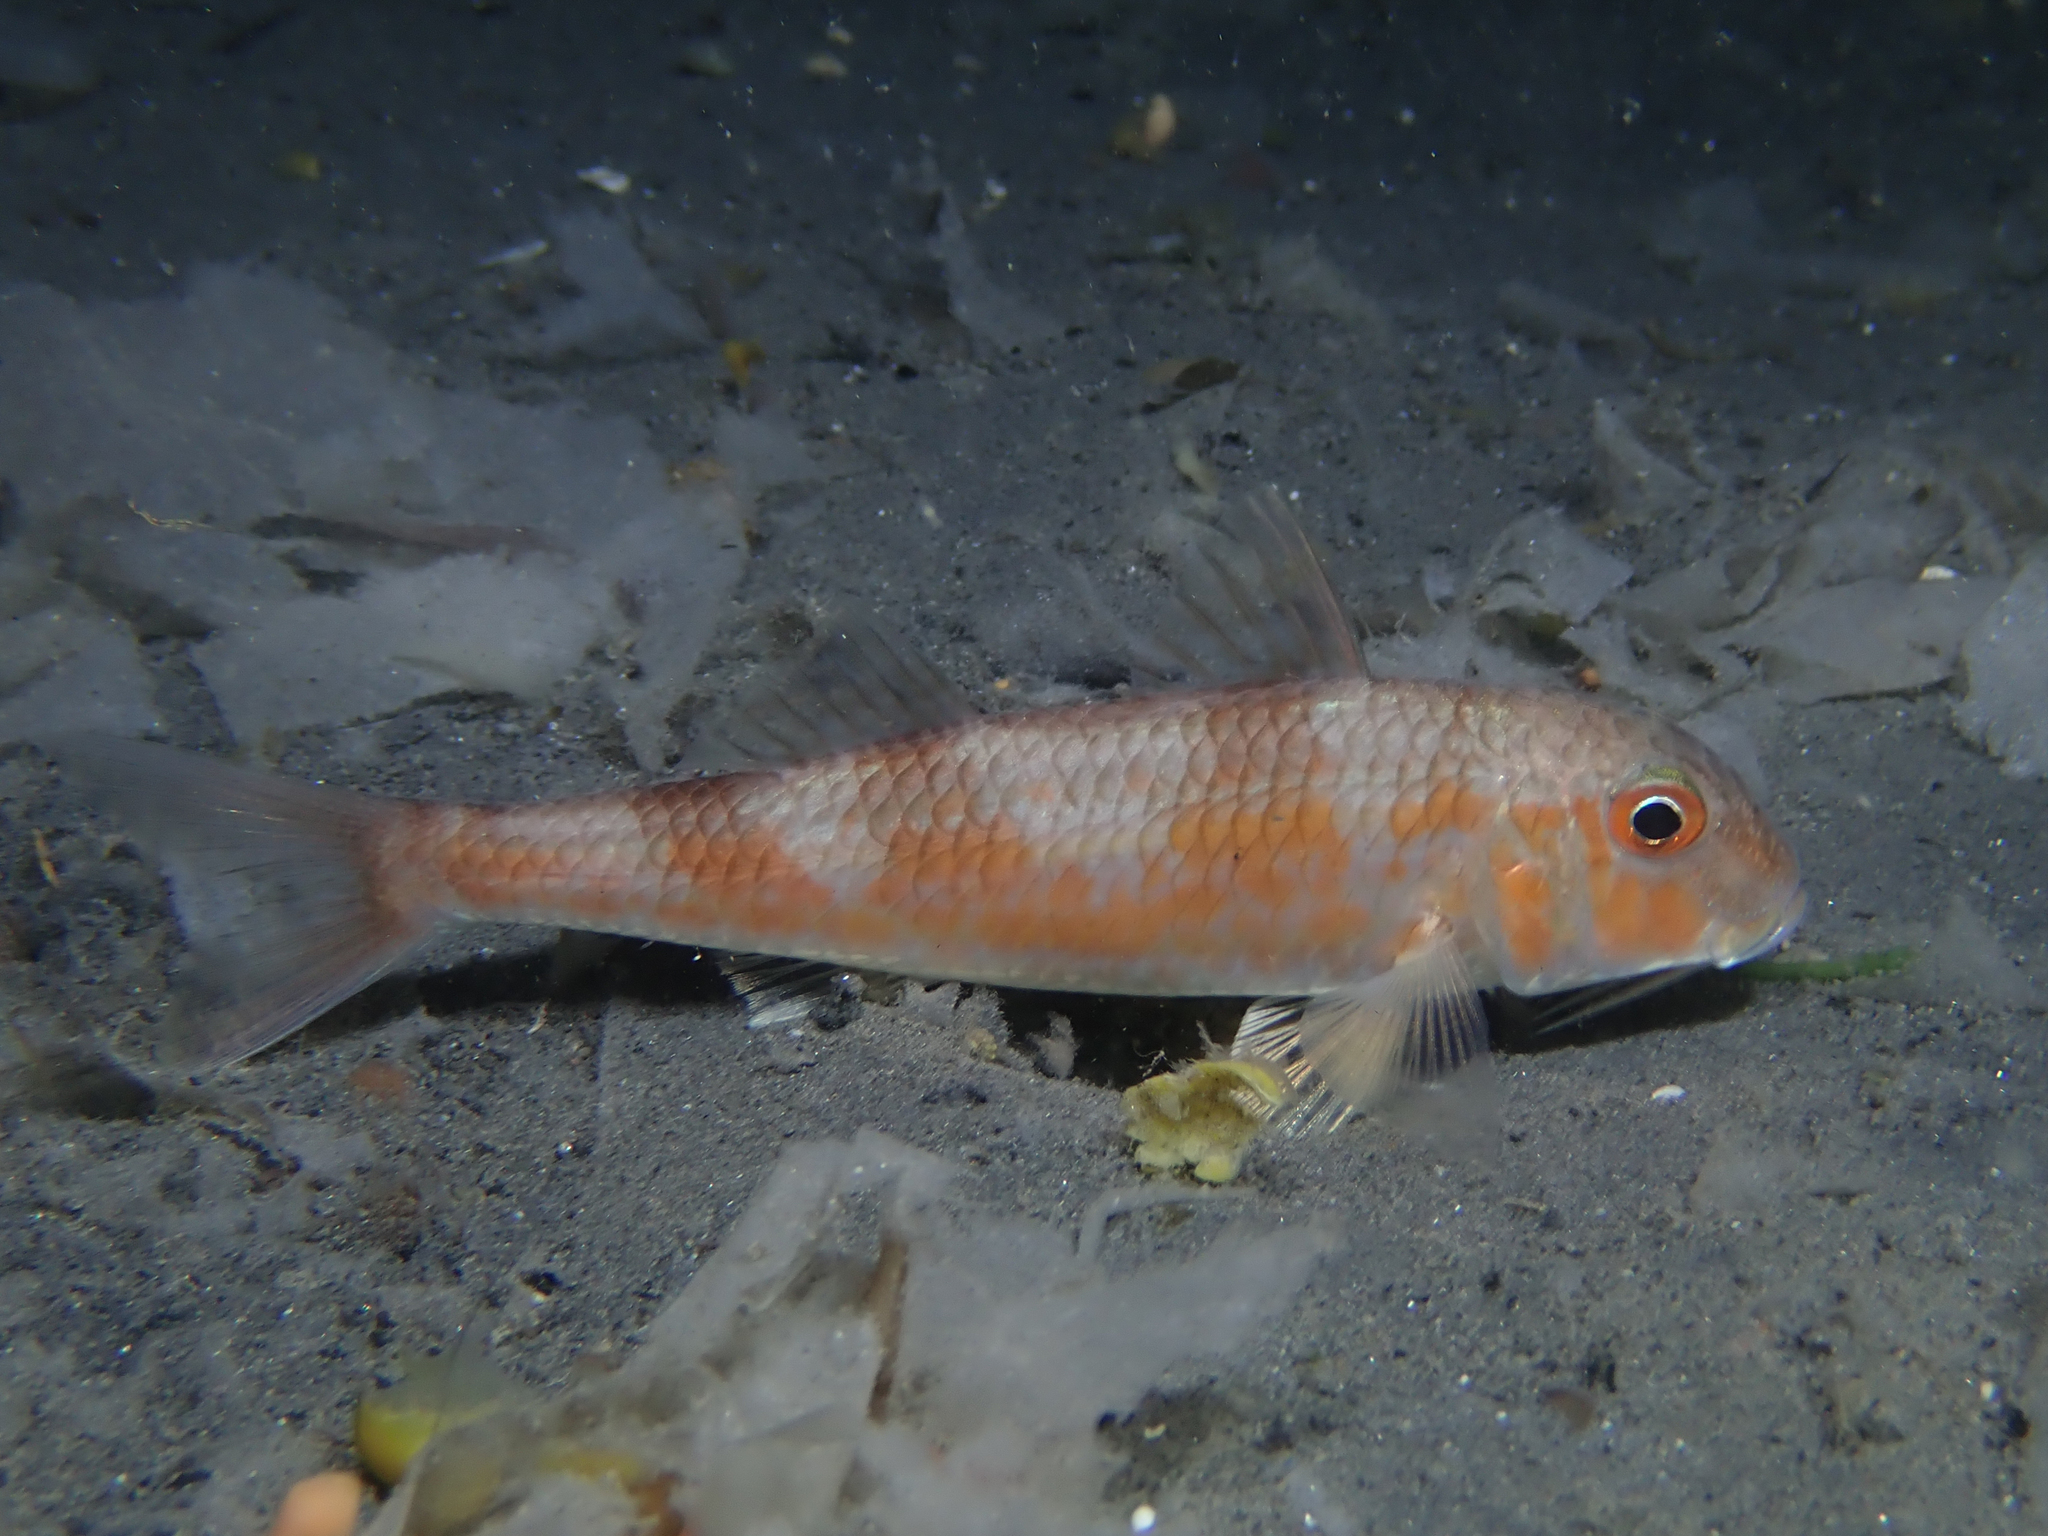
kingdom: Animalia
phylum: Chordata
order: Perciformes
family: Mullidae
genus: Mullus
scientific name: Mullus barbatus
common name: Blunt-snouted mullet
